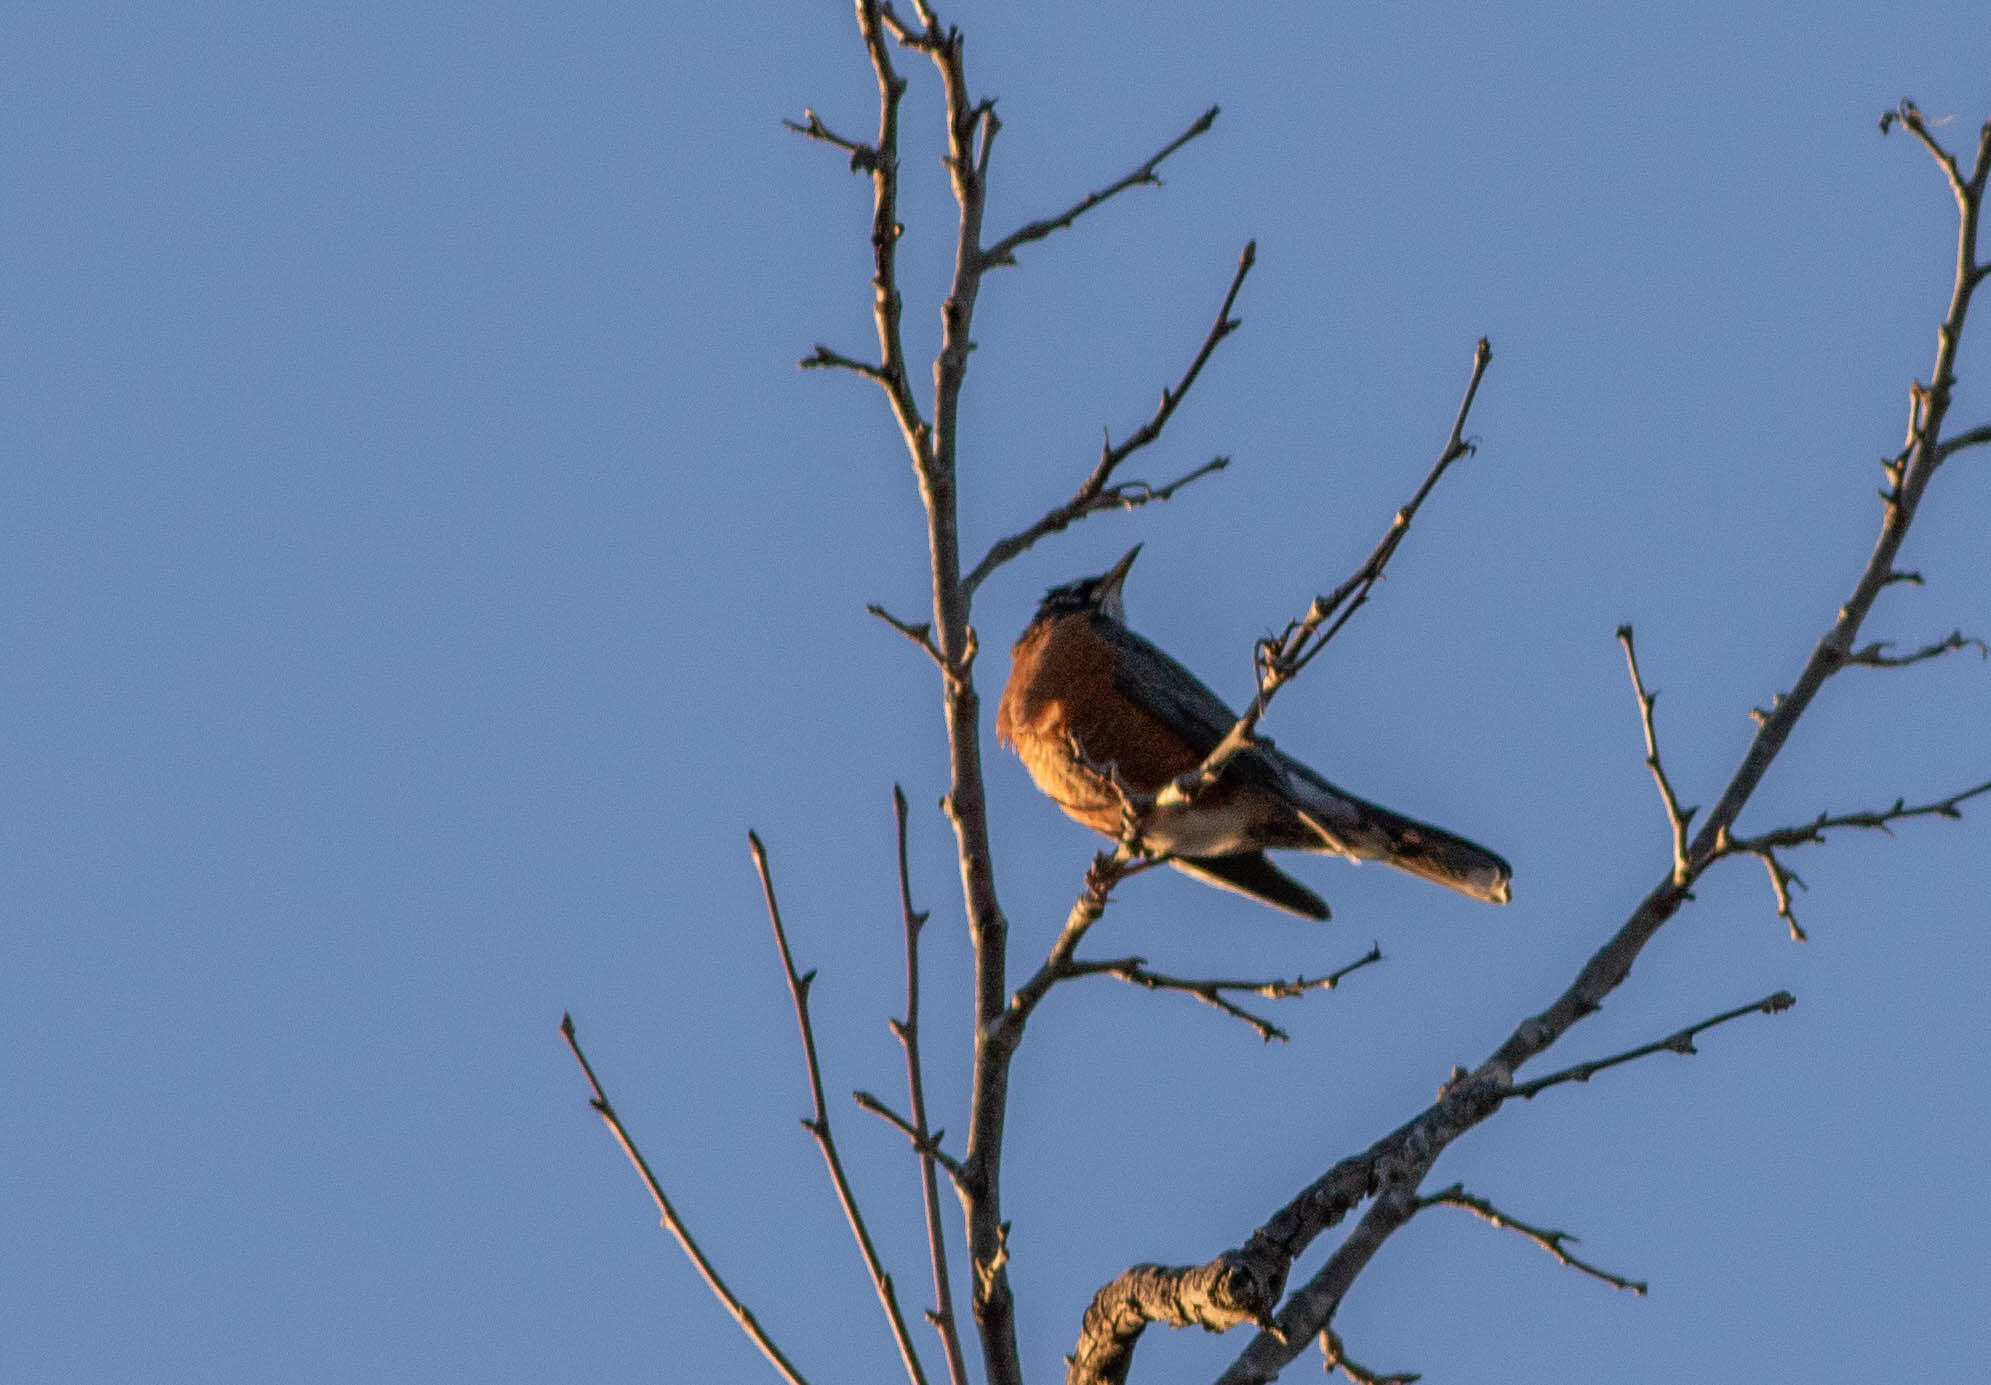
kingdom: Animalia
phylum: Chordata
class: Aves
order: Passeriformes
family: Turdidae
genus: Turdus
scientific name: Turdus migratorius
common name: American robin
